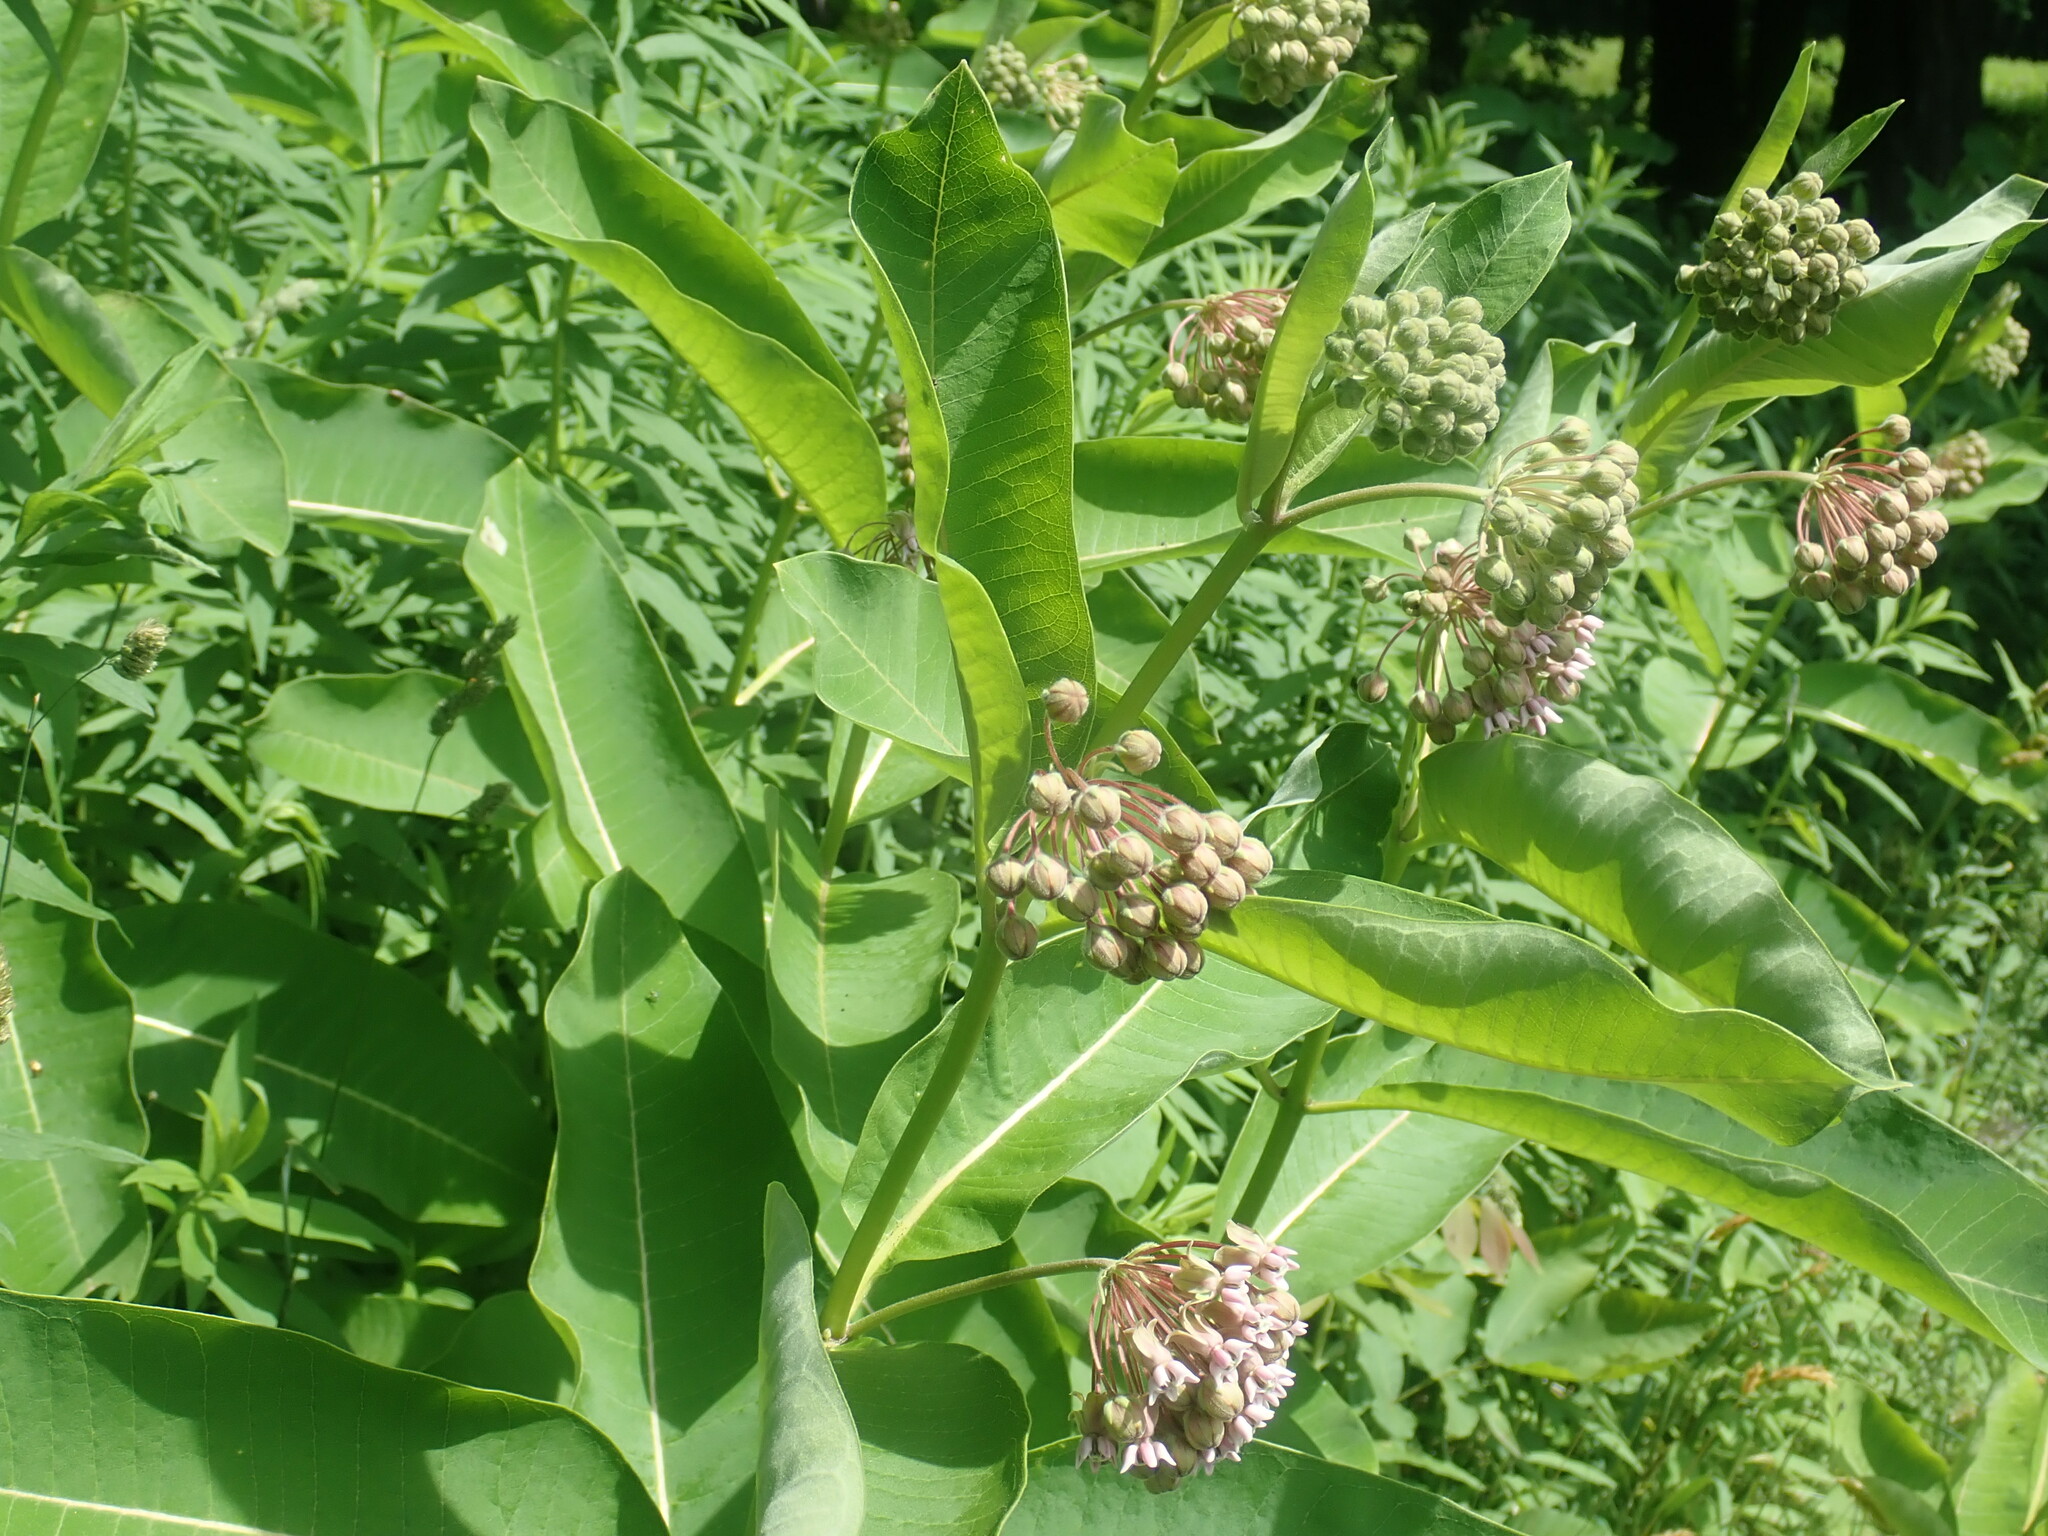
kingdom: Plantae
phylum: Tracheophyta
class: Magnoliopsida
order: Gentianales
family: Apocynaceae
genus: Asclepias
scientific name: Asclepias syriaca
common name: Common milkweed
